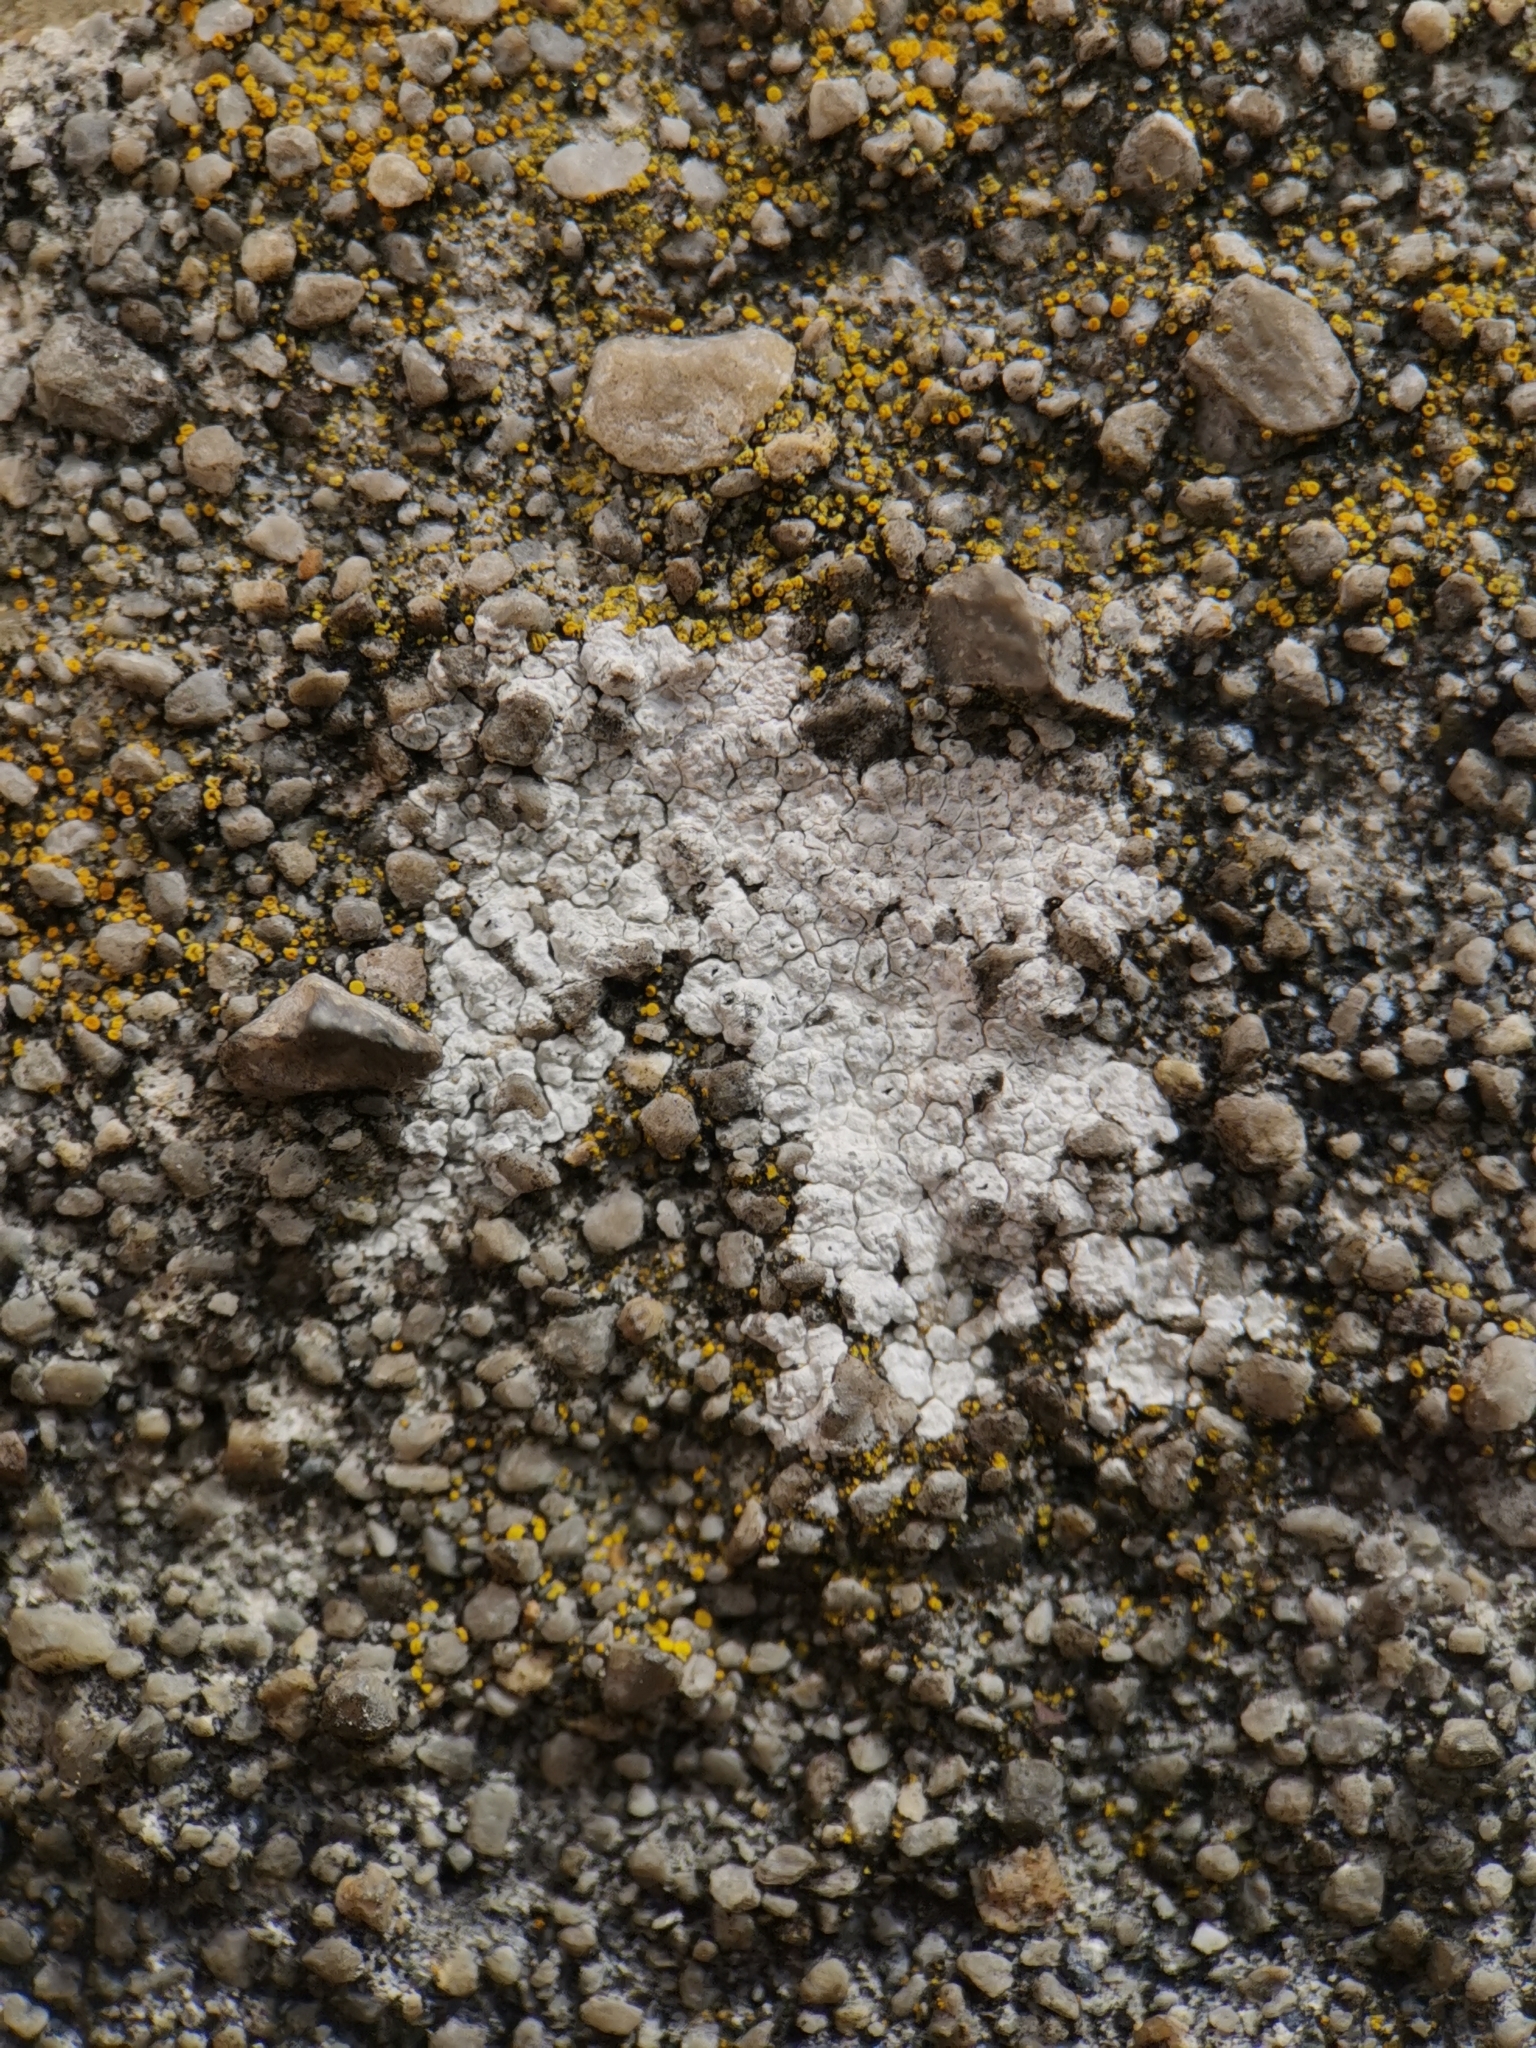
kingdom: Fungi
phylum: Ascomycota
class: Lecanoromycetes
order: Pertusariales
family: Megasporaceae
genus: Circinaria
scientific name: Circinaria contorta
